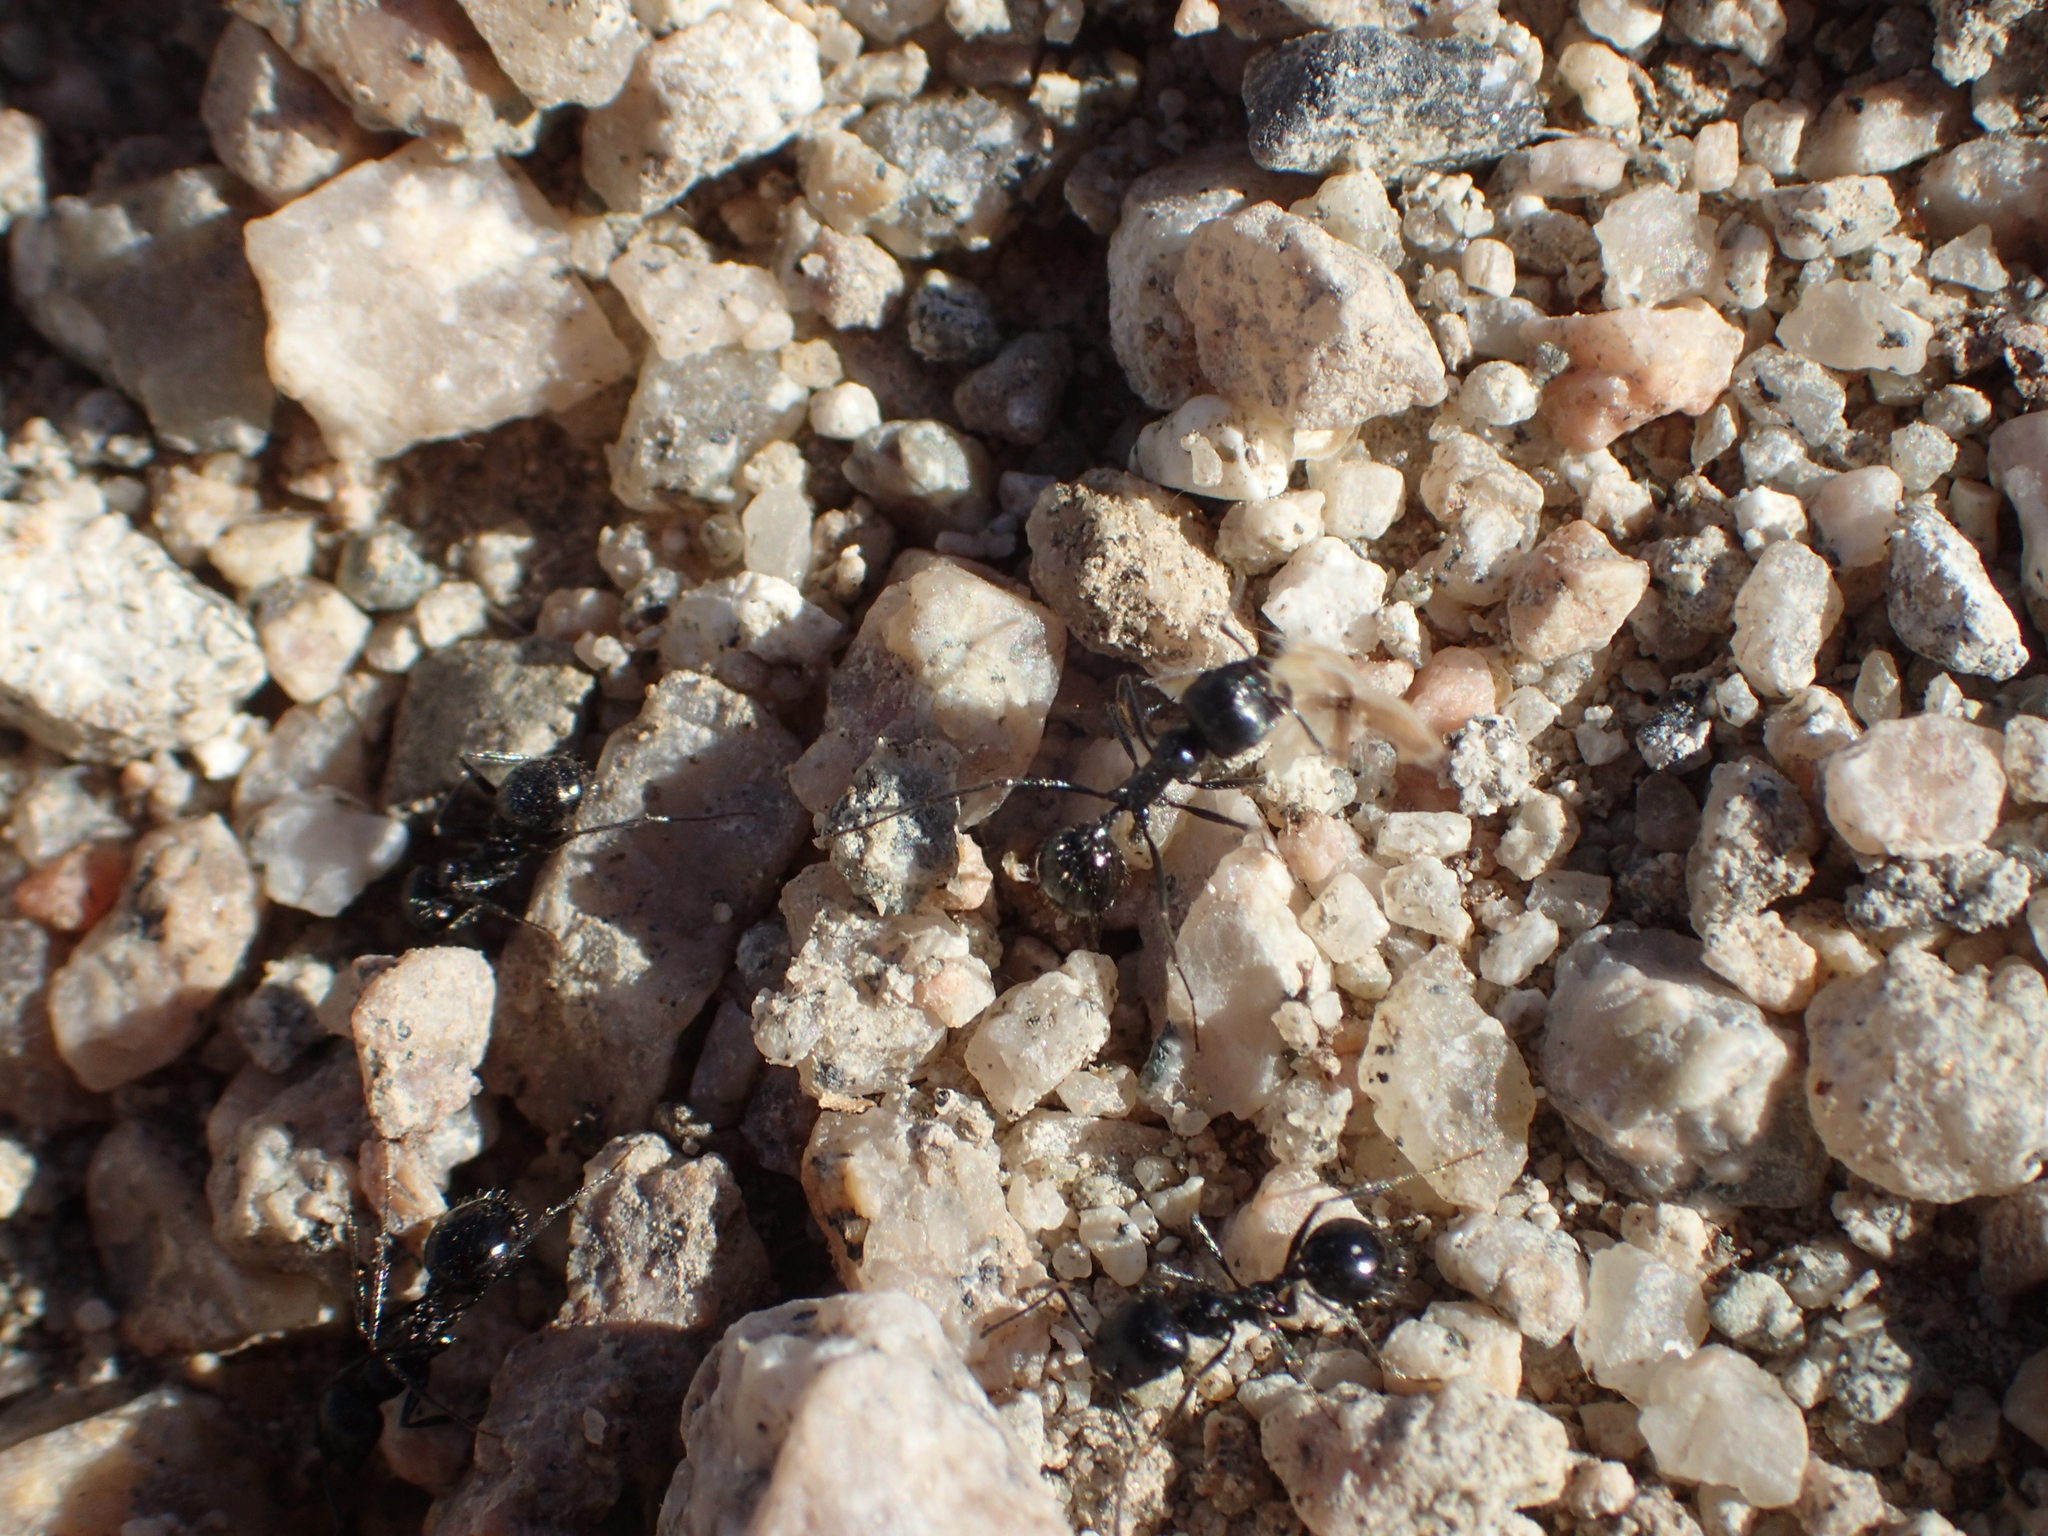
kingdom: Animalia
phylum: Arthropoda
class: Insecta
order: Hymenoptera
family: Formicidae
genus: Messor
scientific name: Messor pergandei
